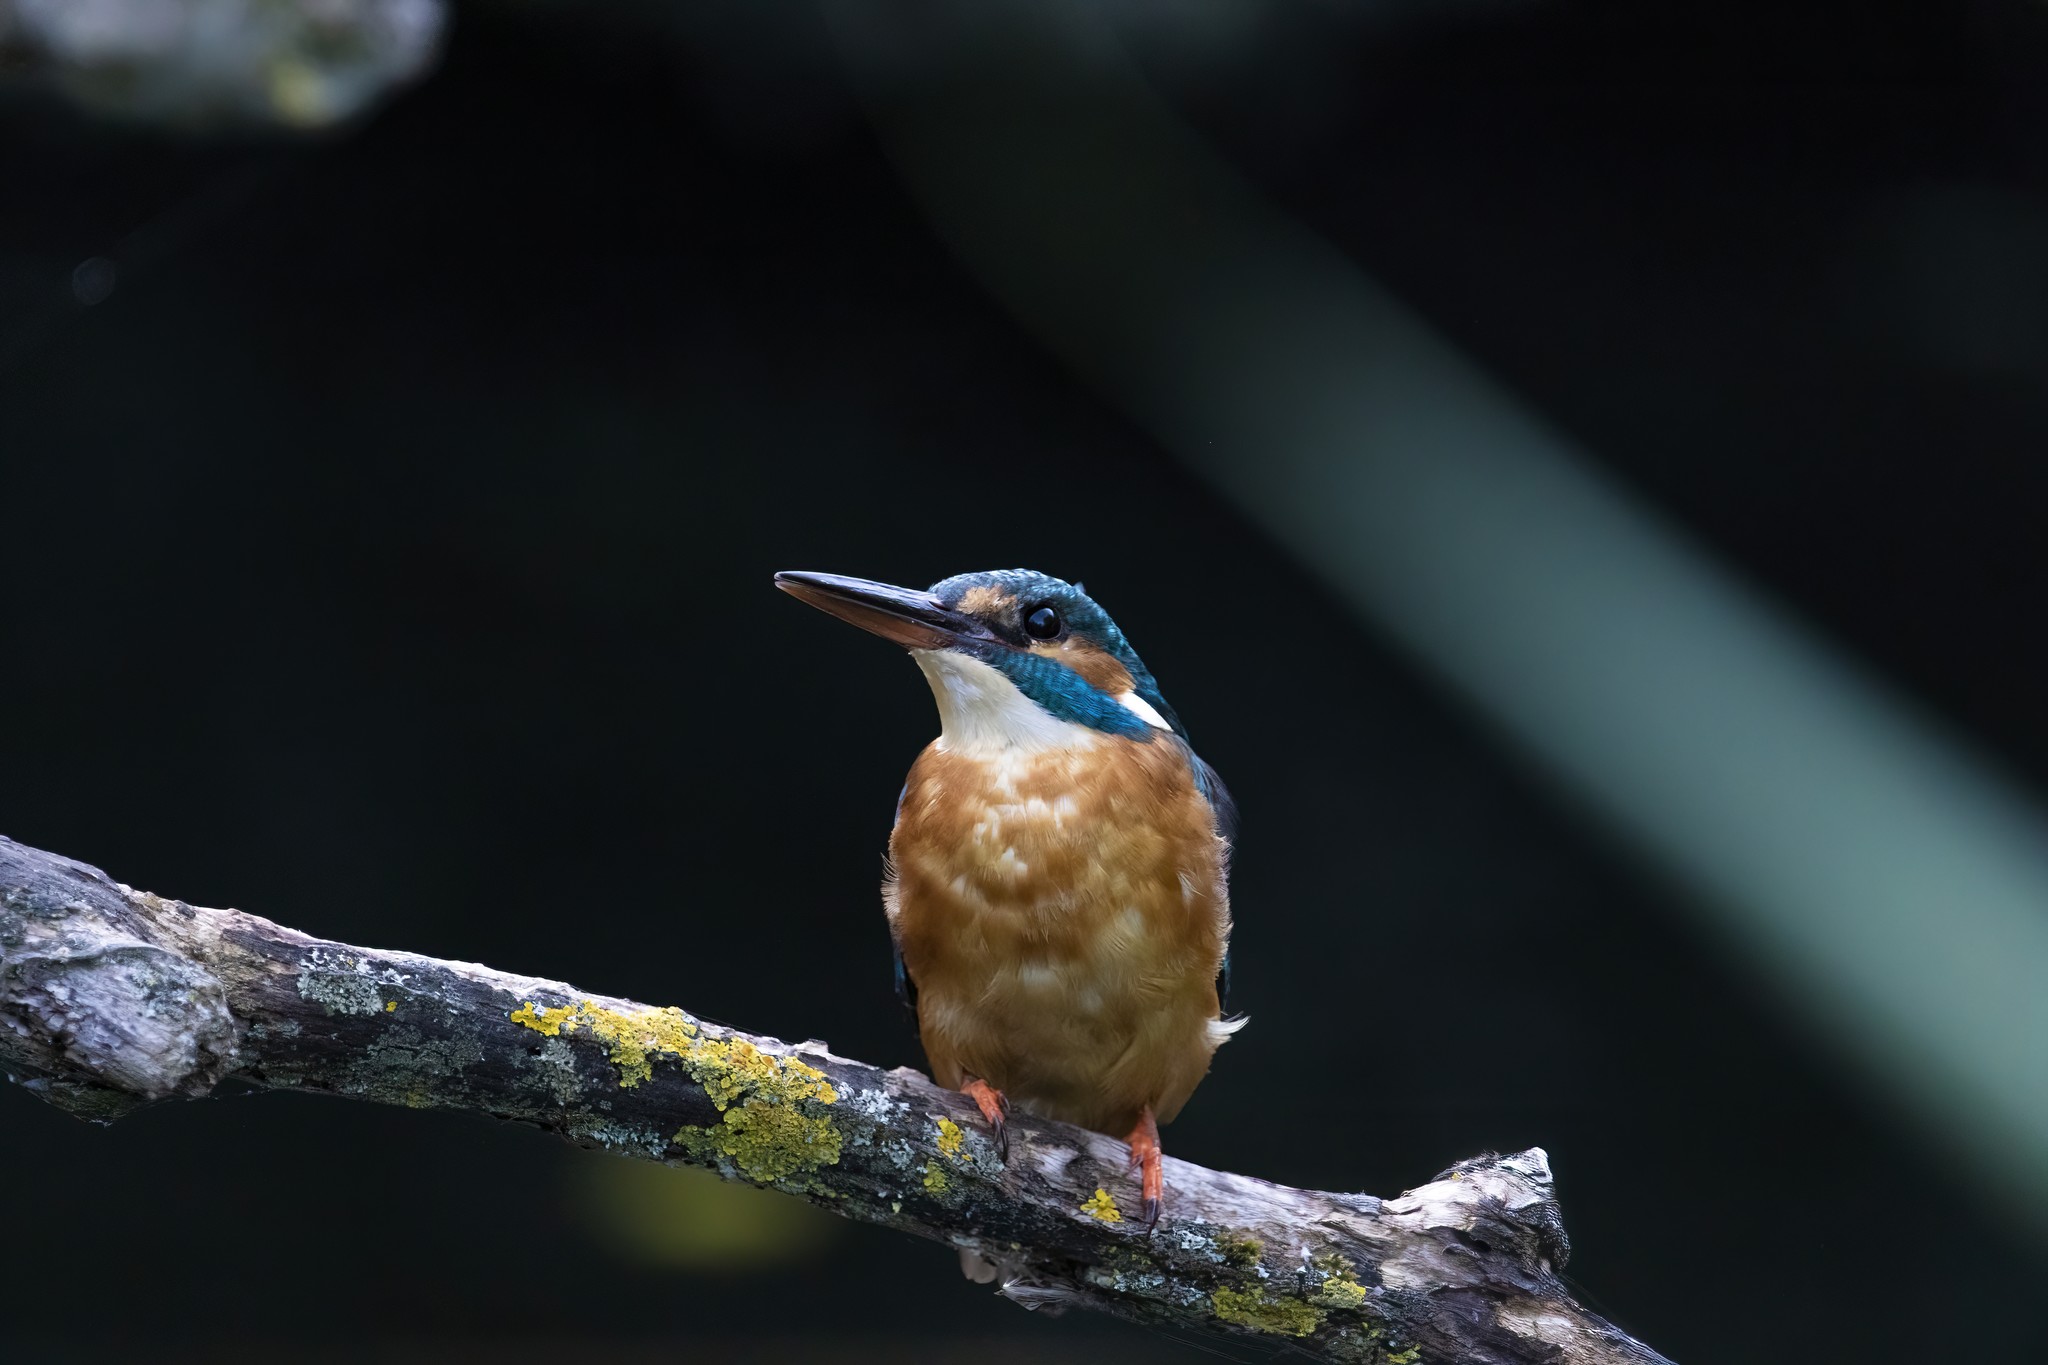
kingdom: Animalia
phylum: Chordata
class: Aves
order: Coraciiformes
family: Alcedinidae
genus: Alcedo
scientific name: Alcedo atthis
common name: Common kingfisher
